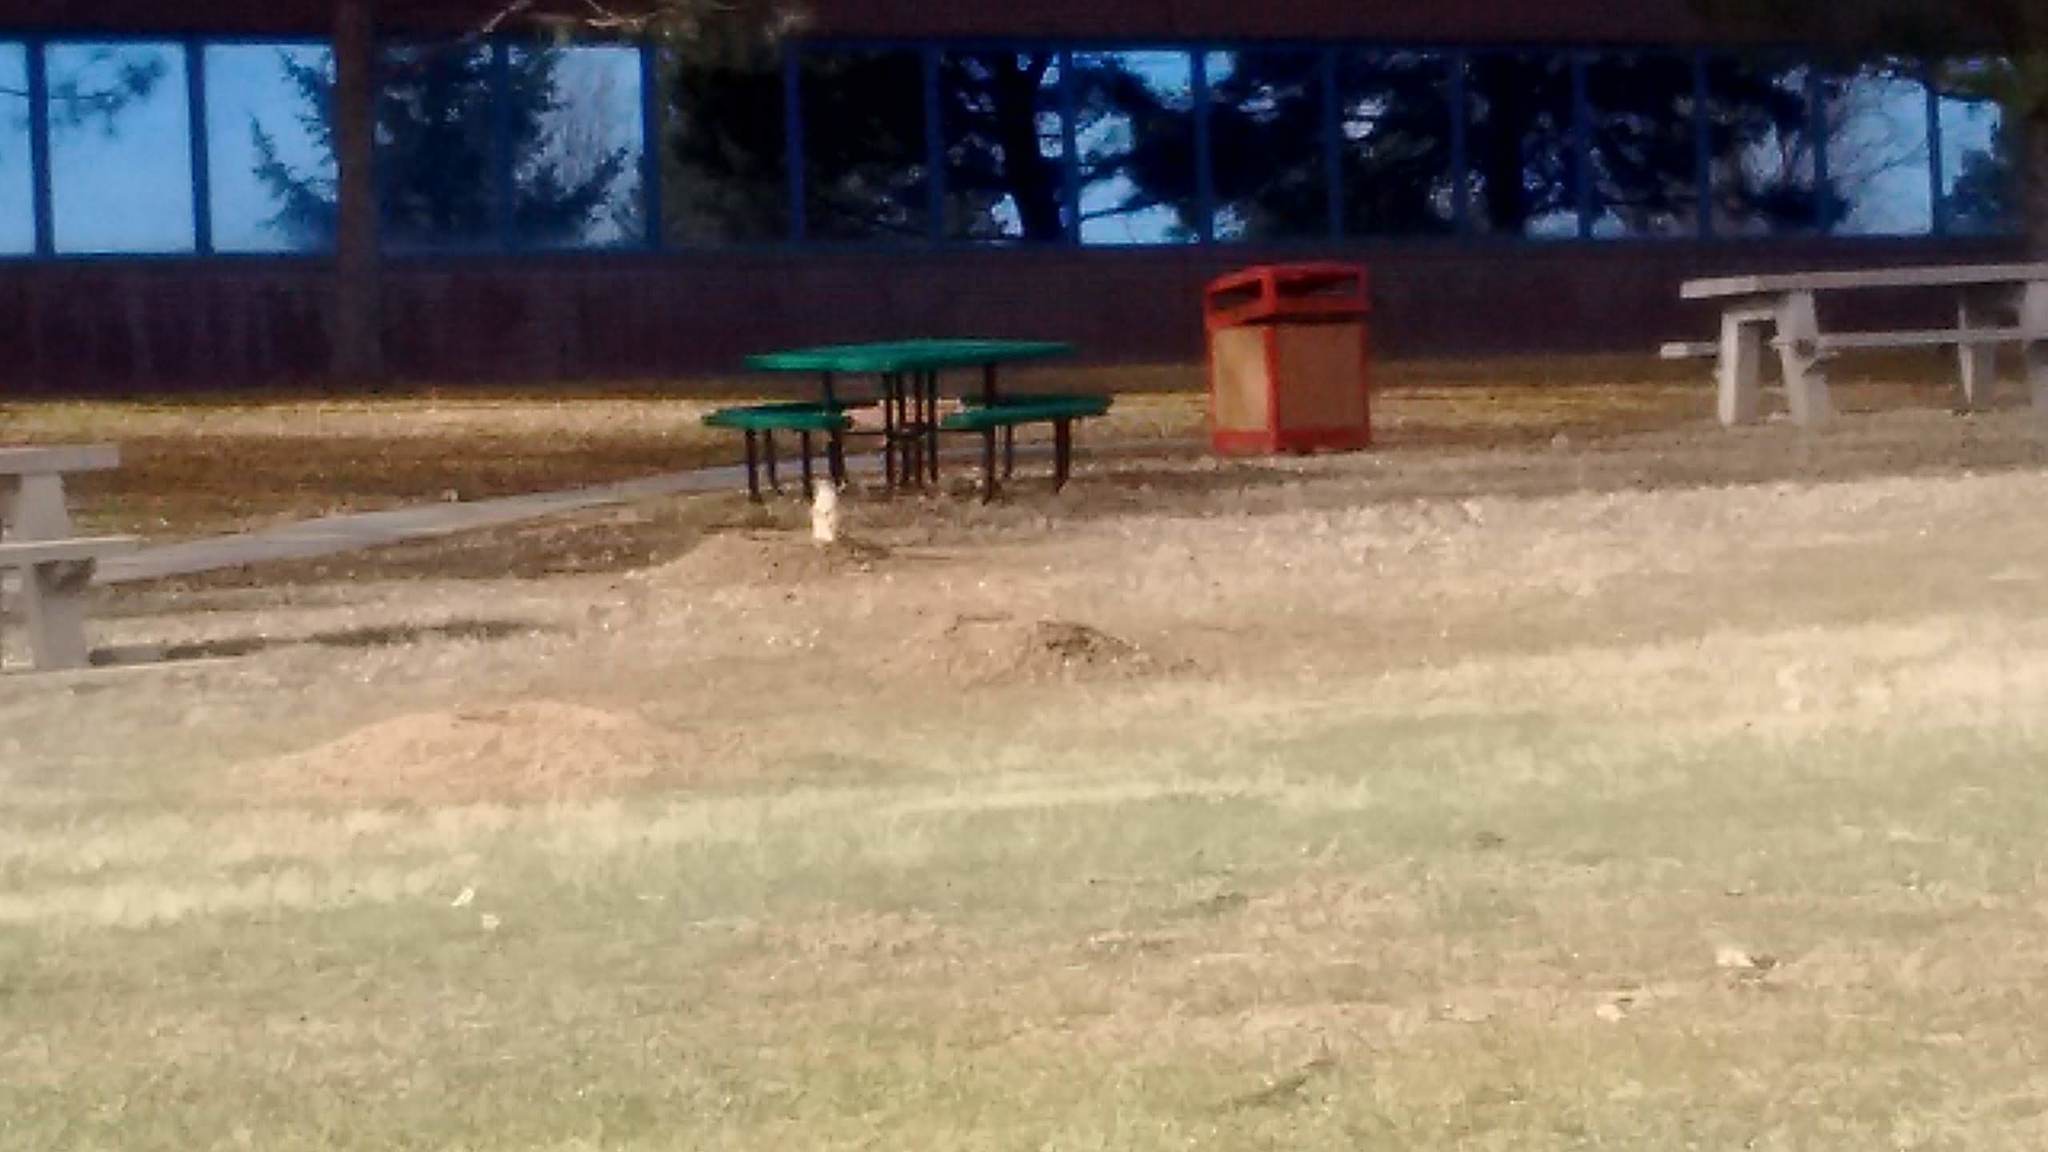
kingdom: Animalia
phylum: Chordata
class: Mammalia
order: Rodentia
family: Sciuridae
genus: Cynomys
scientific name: Cynomys ludovicianus
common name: Black-tailed prairie dog
